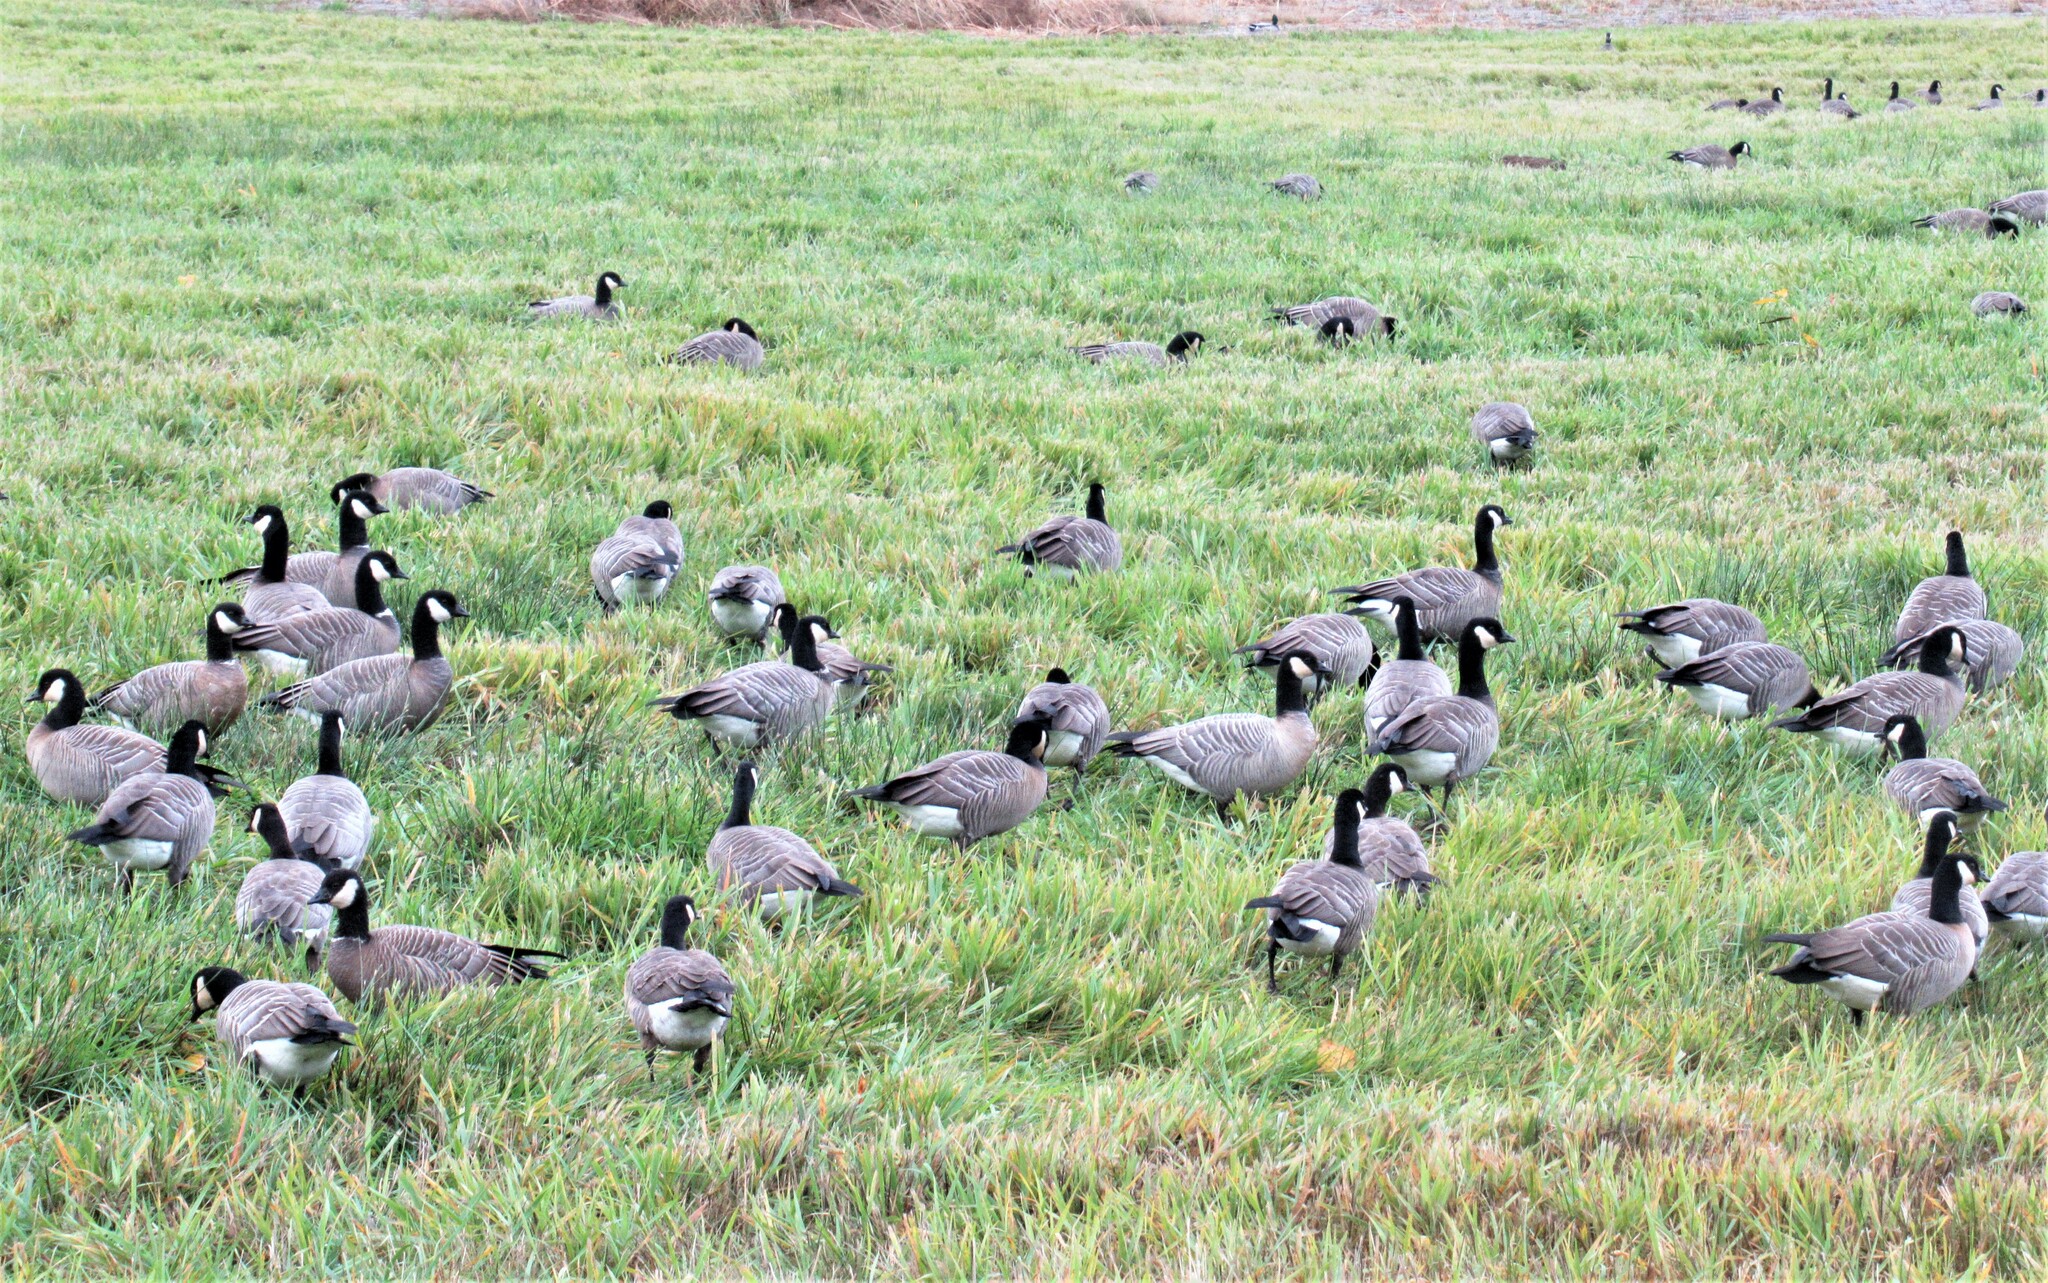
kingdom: Animalia
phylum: Chordata
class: Aves
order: Anseriformes
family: Anatidae
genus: Branta
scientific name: Branta hutchinsii
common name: Cackling goose
